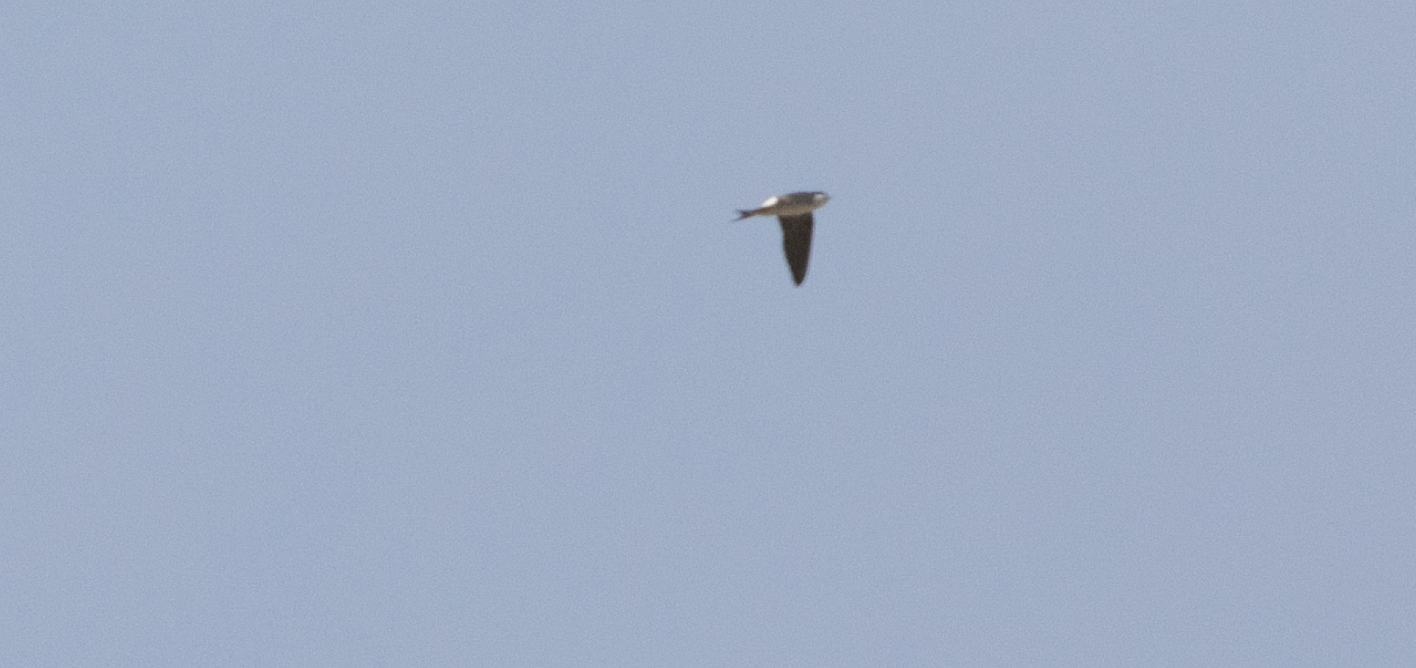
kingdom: Animalia
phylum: Chordata
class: Aves
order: Passeriformes
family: Hirundinidae
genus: Delichon
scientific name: Delichon urbicum
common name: Common house martin
